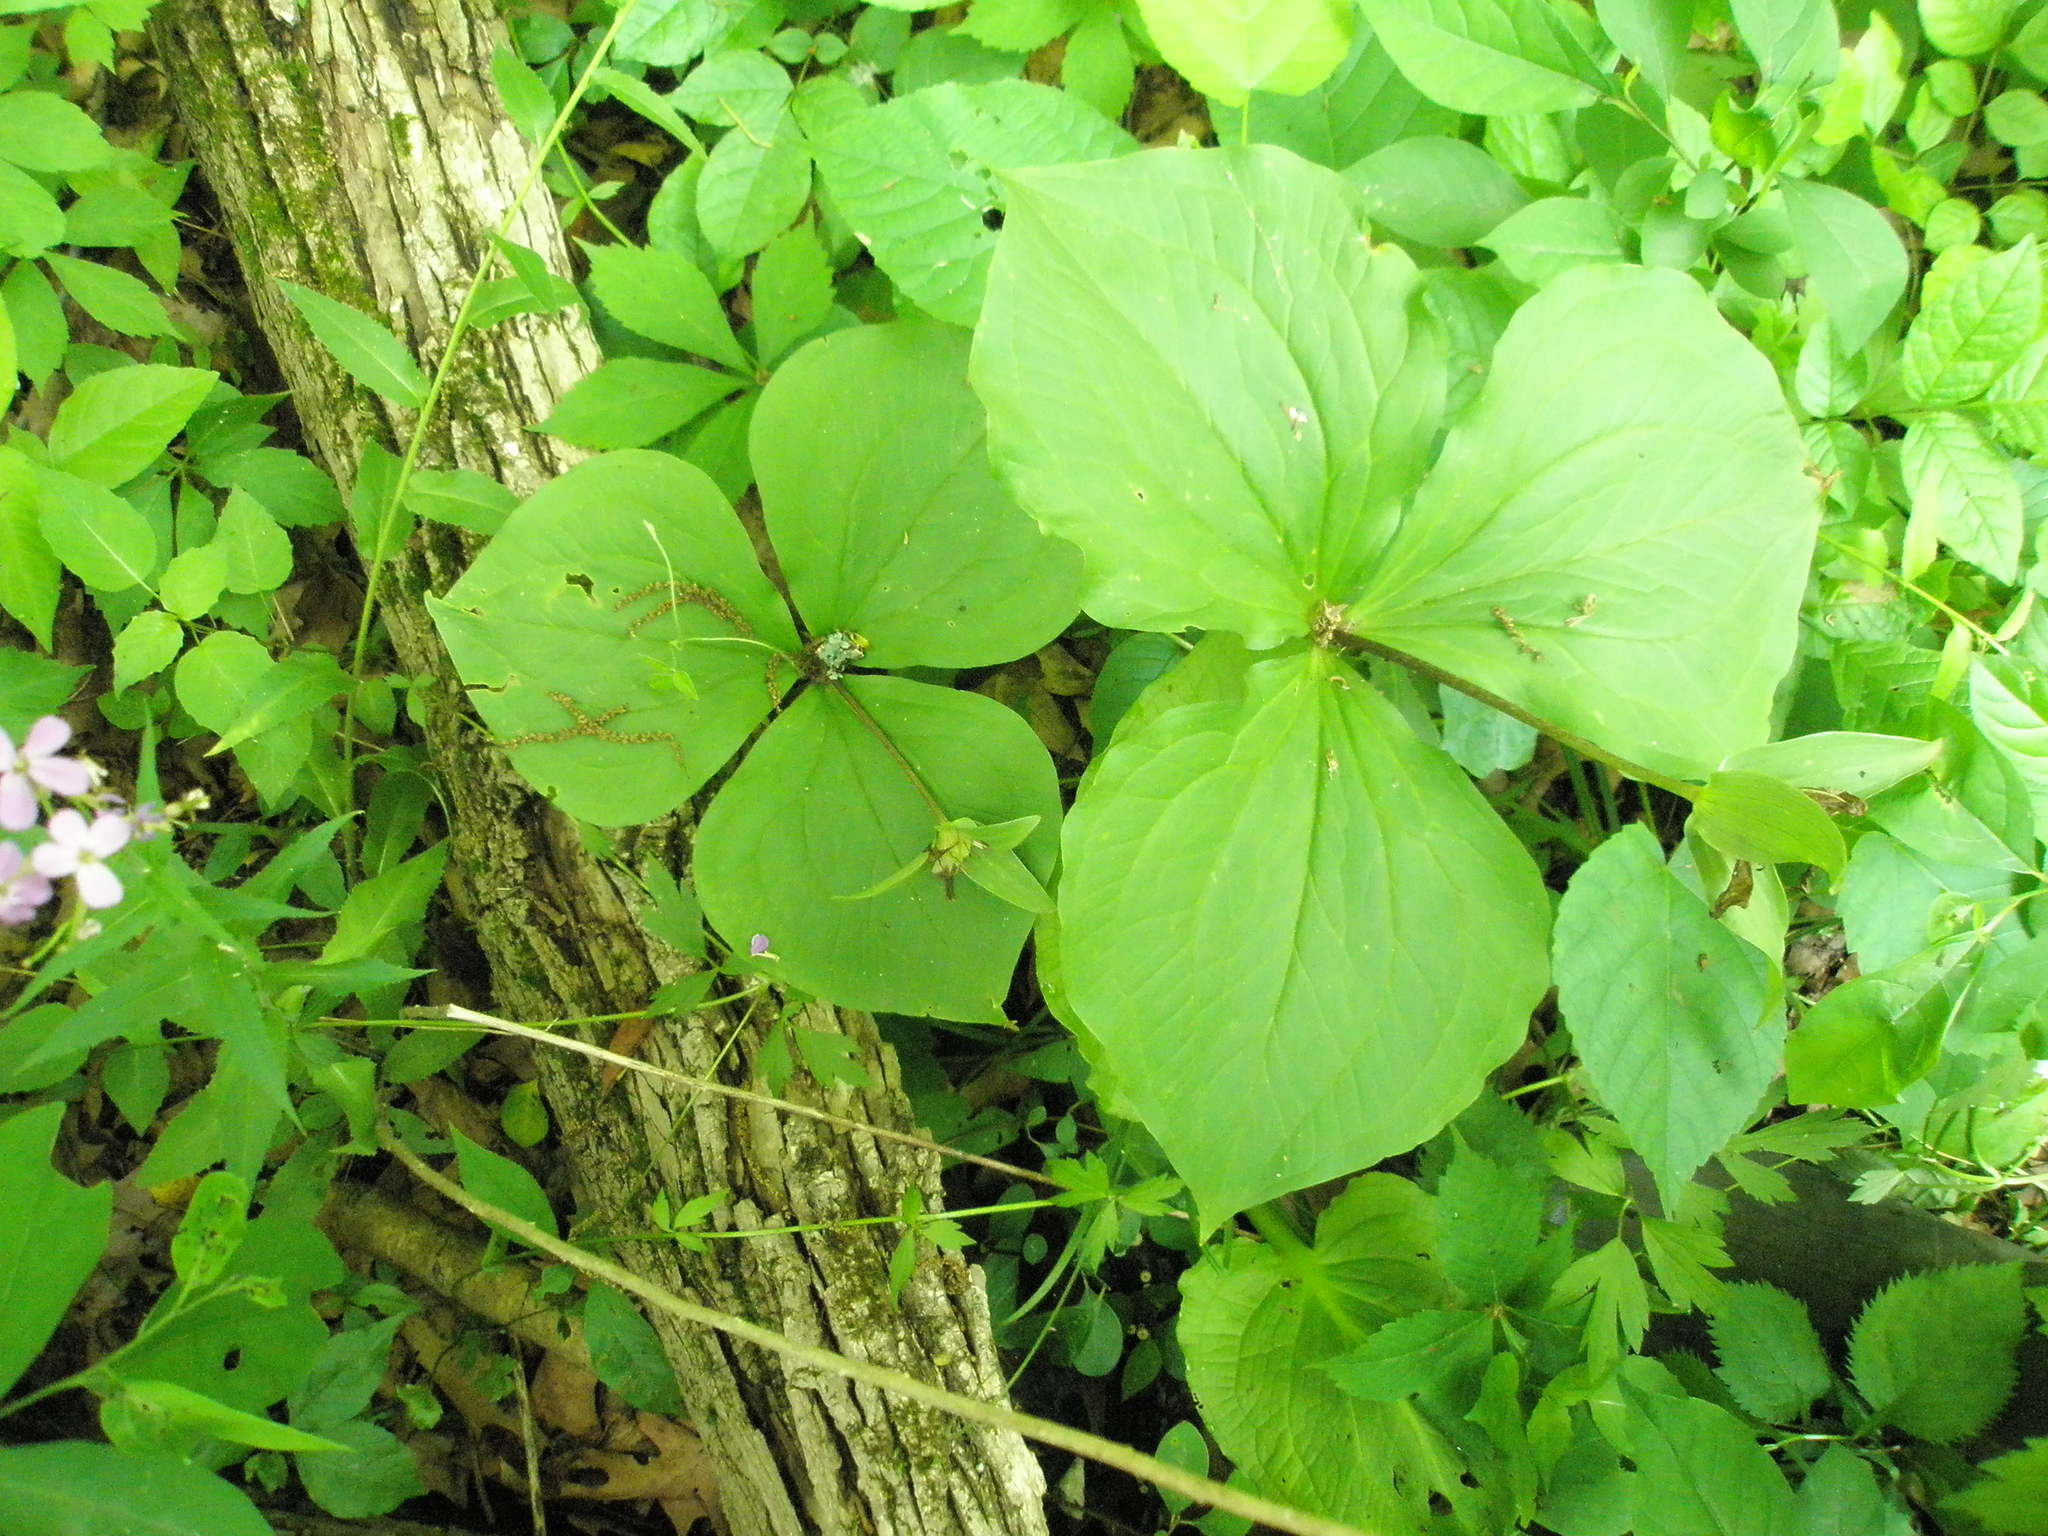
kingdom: Plantae
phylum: Tracheophyta
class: Liliopsida
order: Liliales
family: Melanthiaceae
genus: Trillium
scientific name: Trillium grandiflorum
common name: Great white trillium
